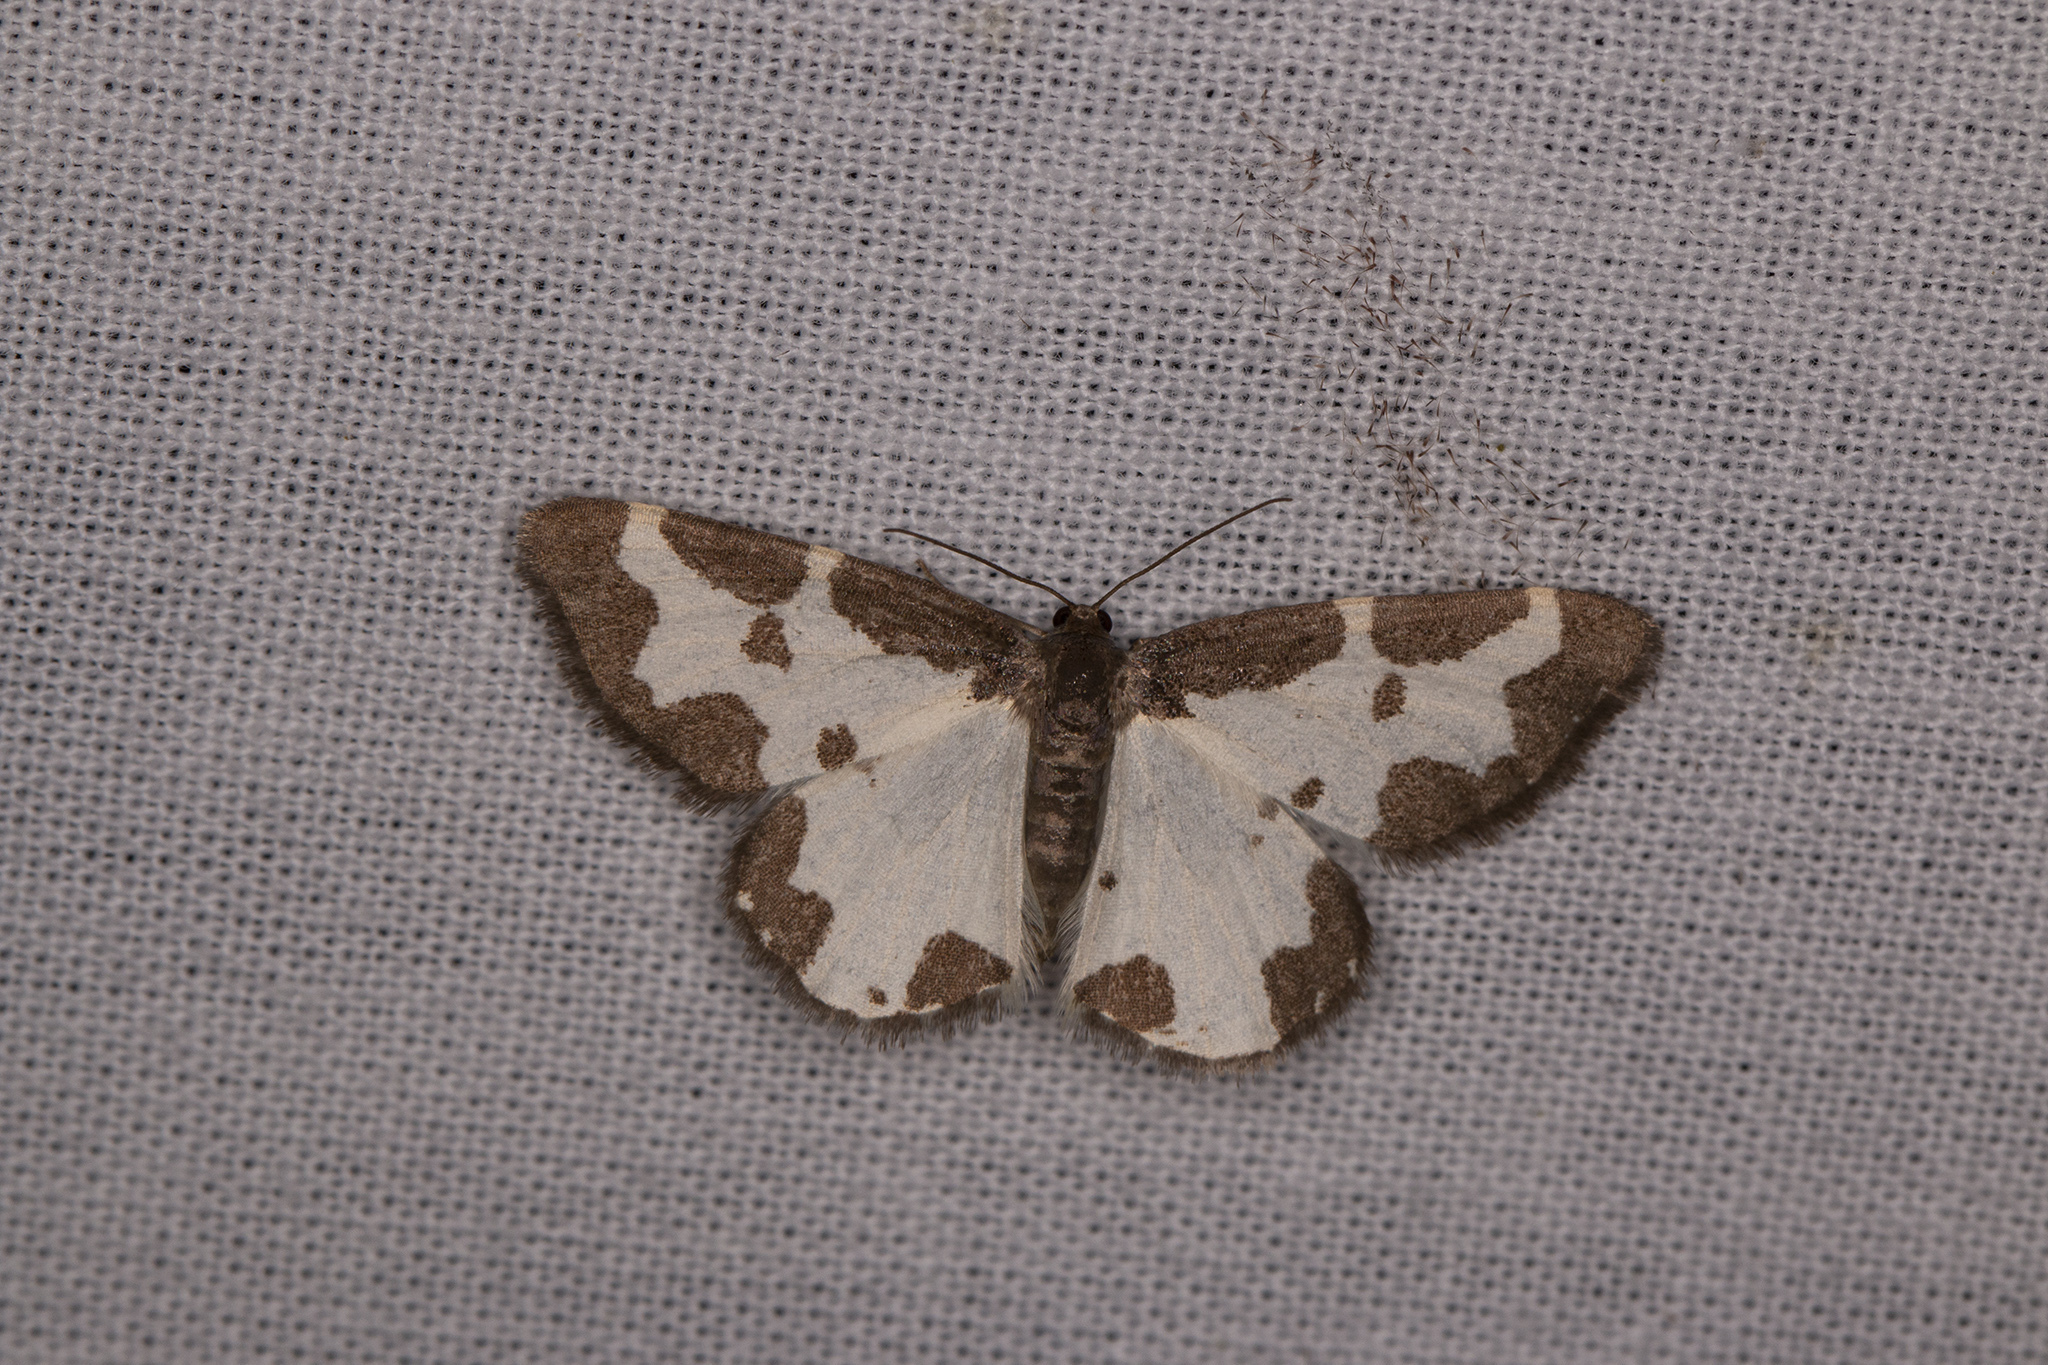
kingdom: Animalia
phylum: Arthropoda
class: Insecta
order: Lepidoptera
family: Geometridae
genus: Lomaspilis
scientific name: Lomaspilis marginata
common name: Clouded border
